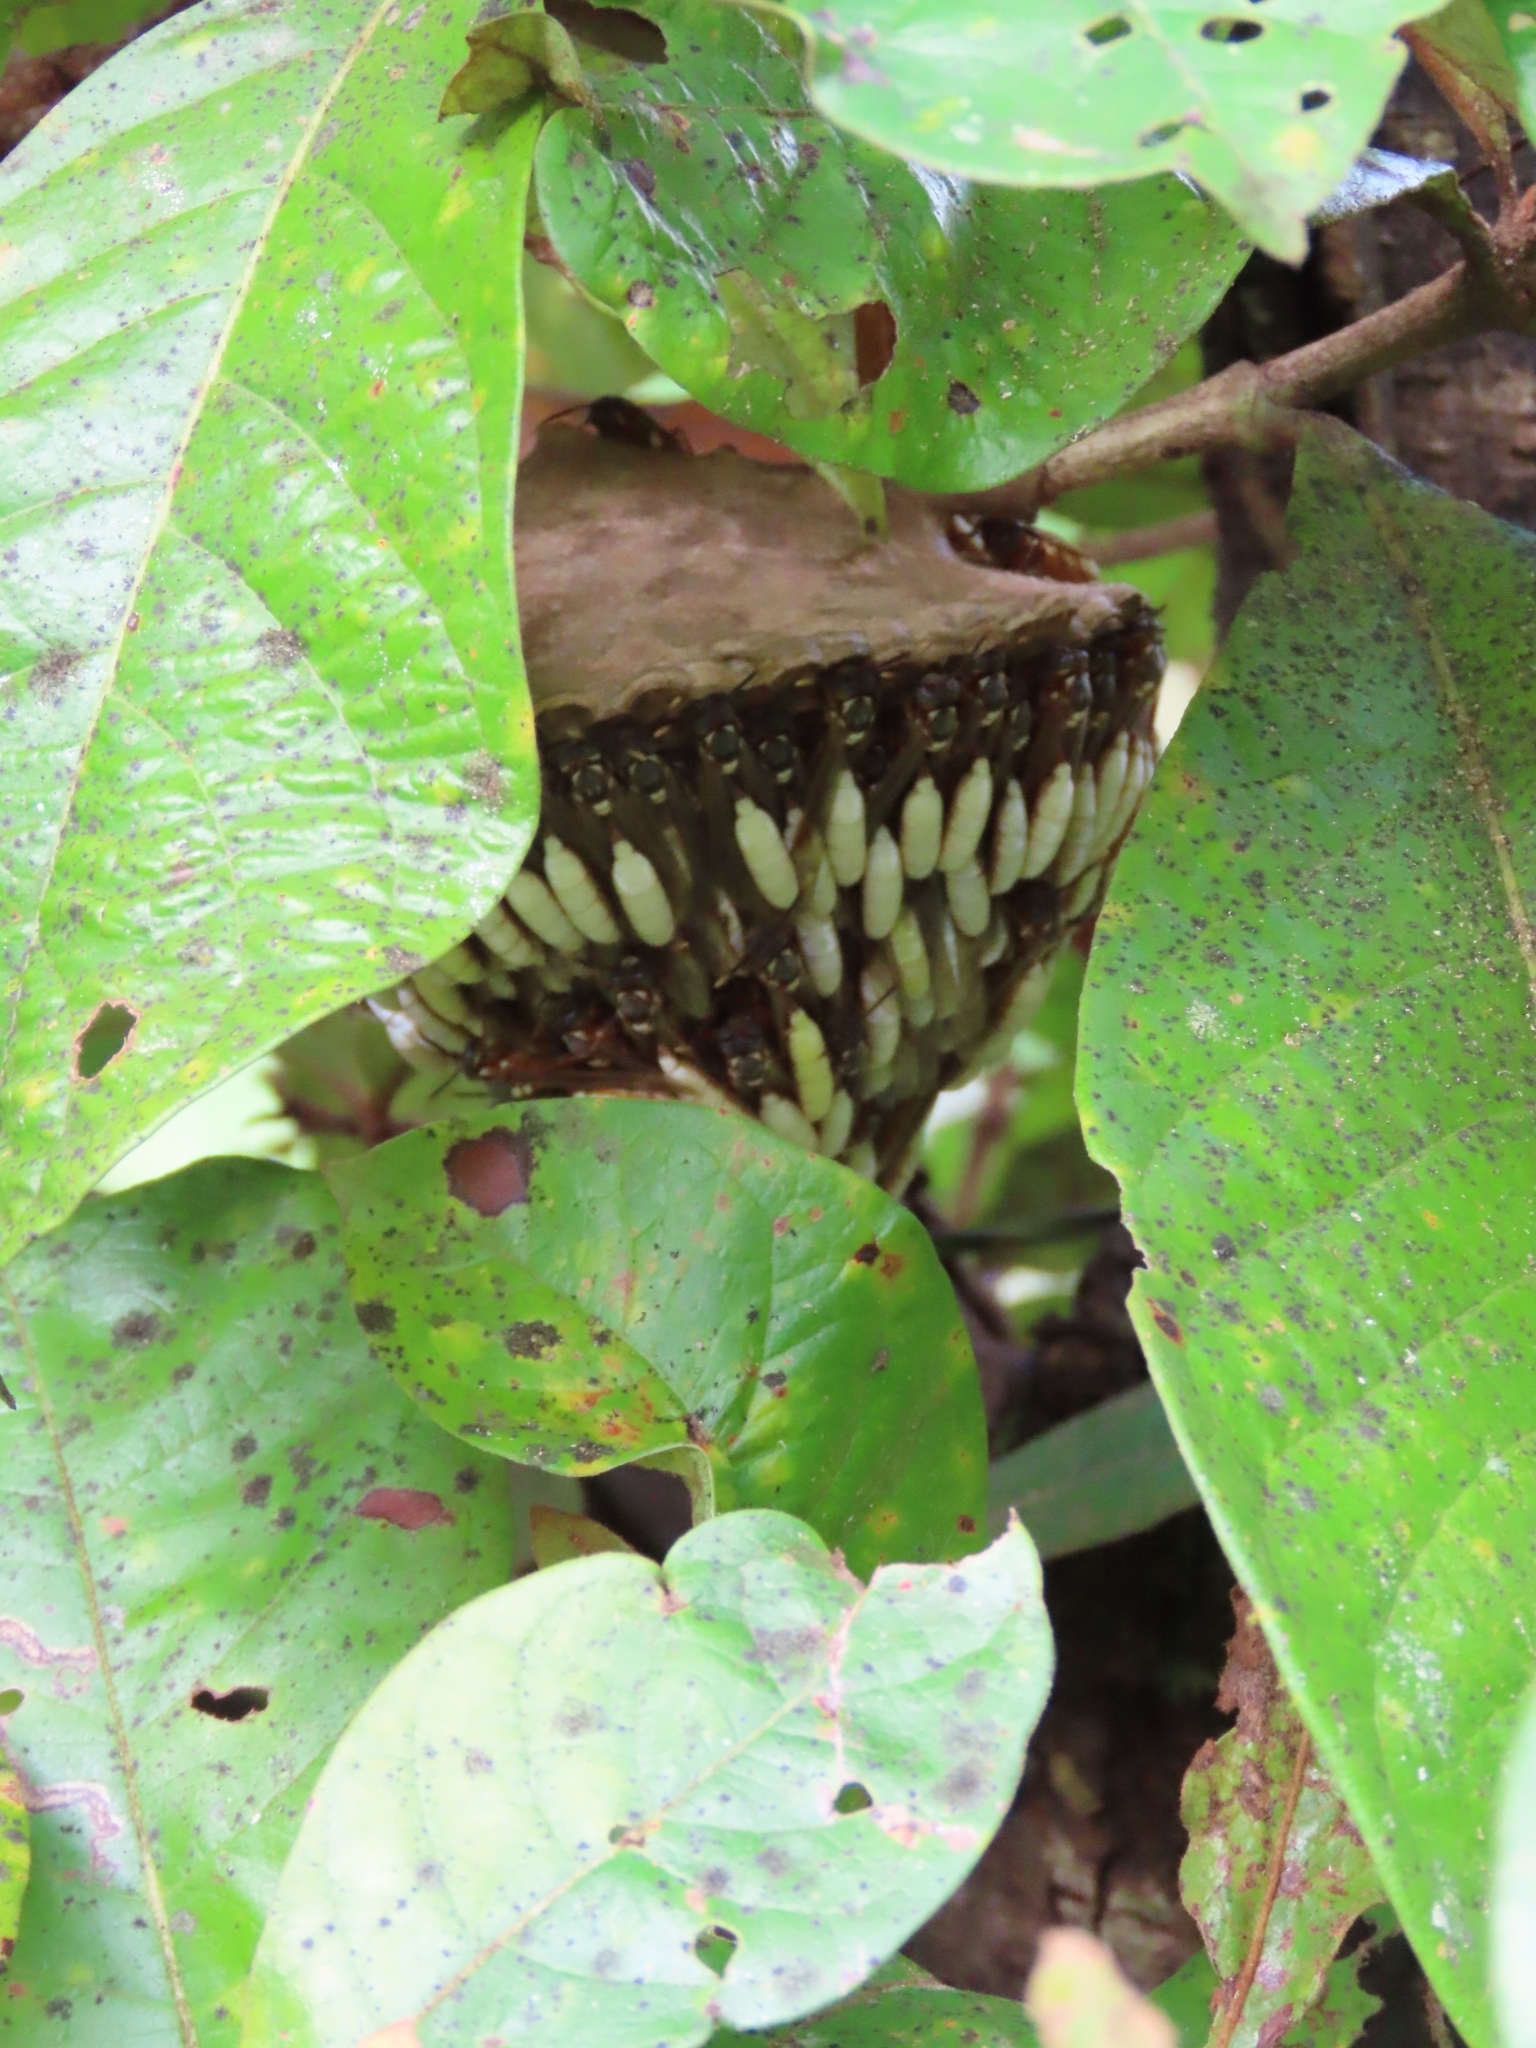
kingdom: Animalia
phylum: Arthropoda
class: Insecta
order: Hymenoptera
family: Vespidae
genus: Apoica
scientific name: Apoica pallens
